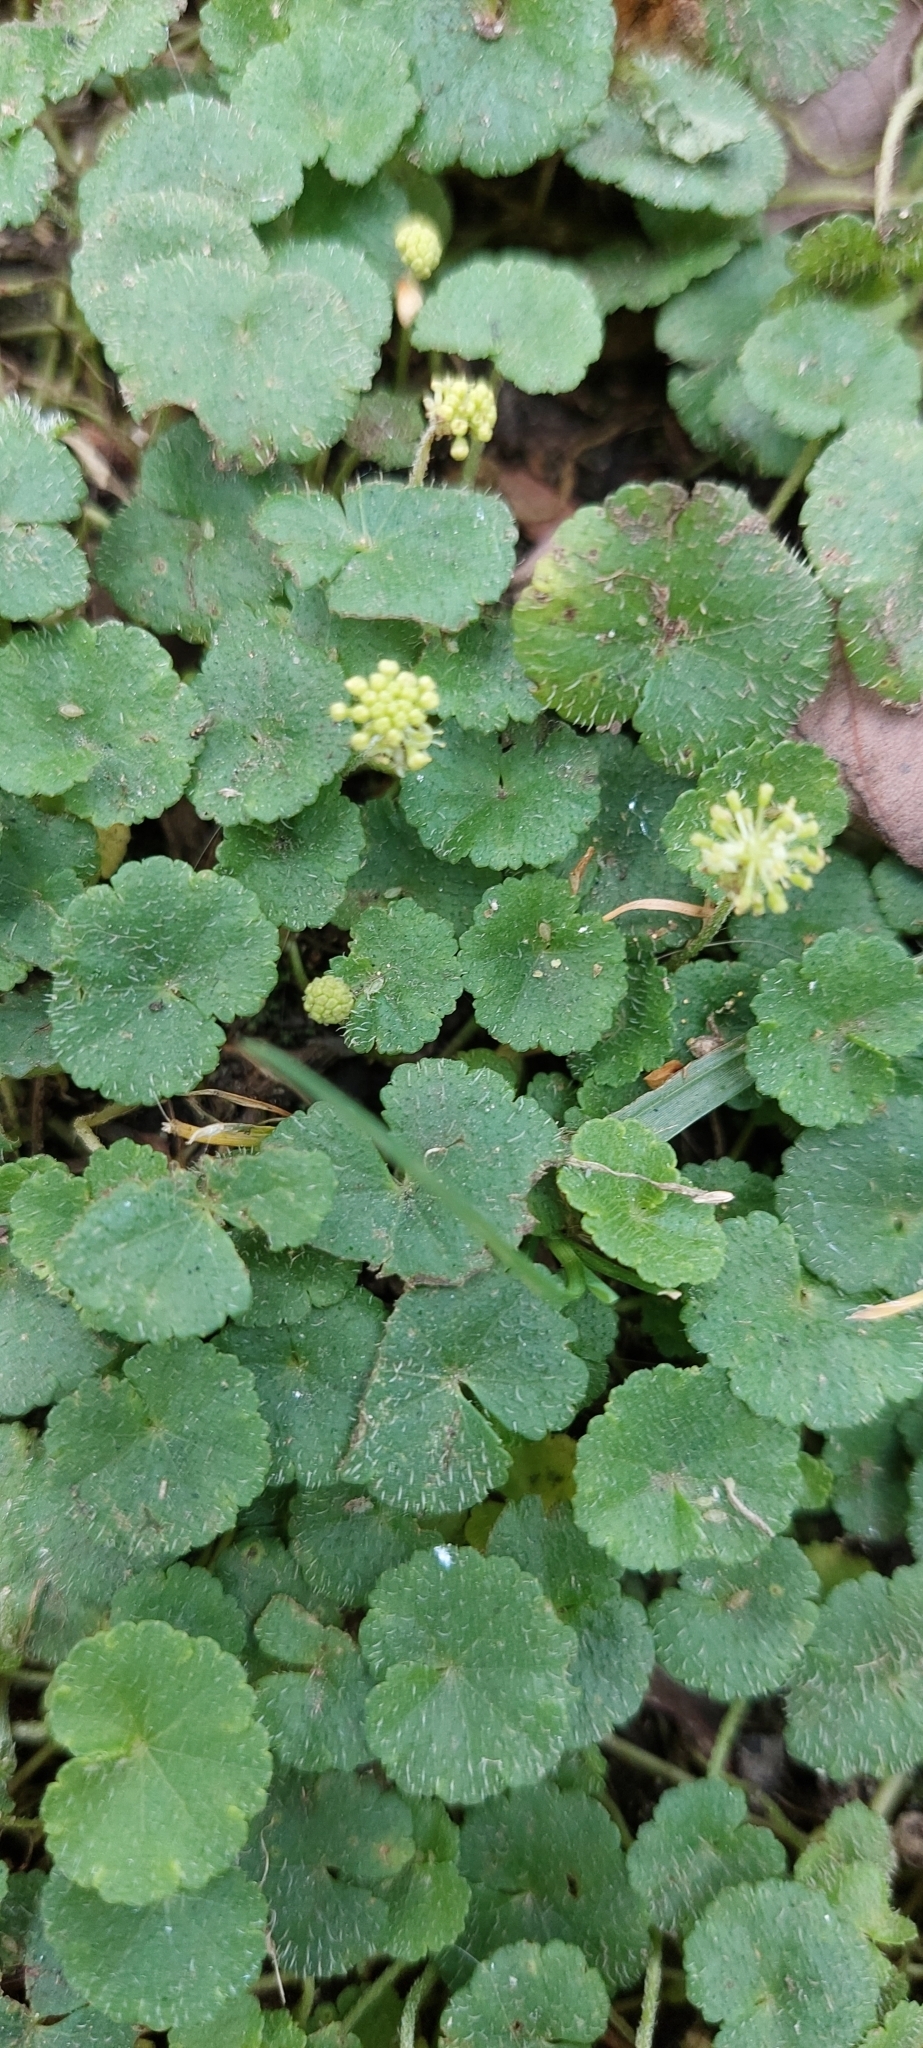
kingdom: Plantae
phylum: Tracheophyta
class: Magnoliopsida
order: Apiales
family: Araliaceae
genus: Hydrocotyle
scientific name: Hydrocotyle bonplandii
